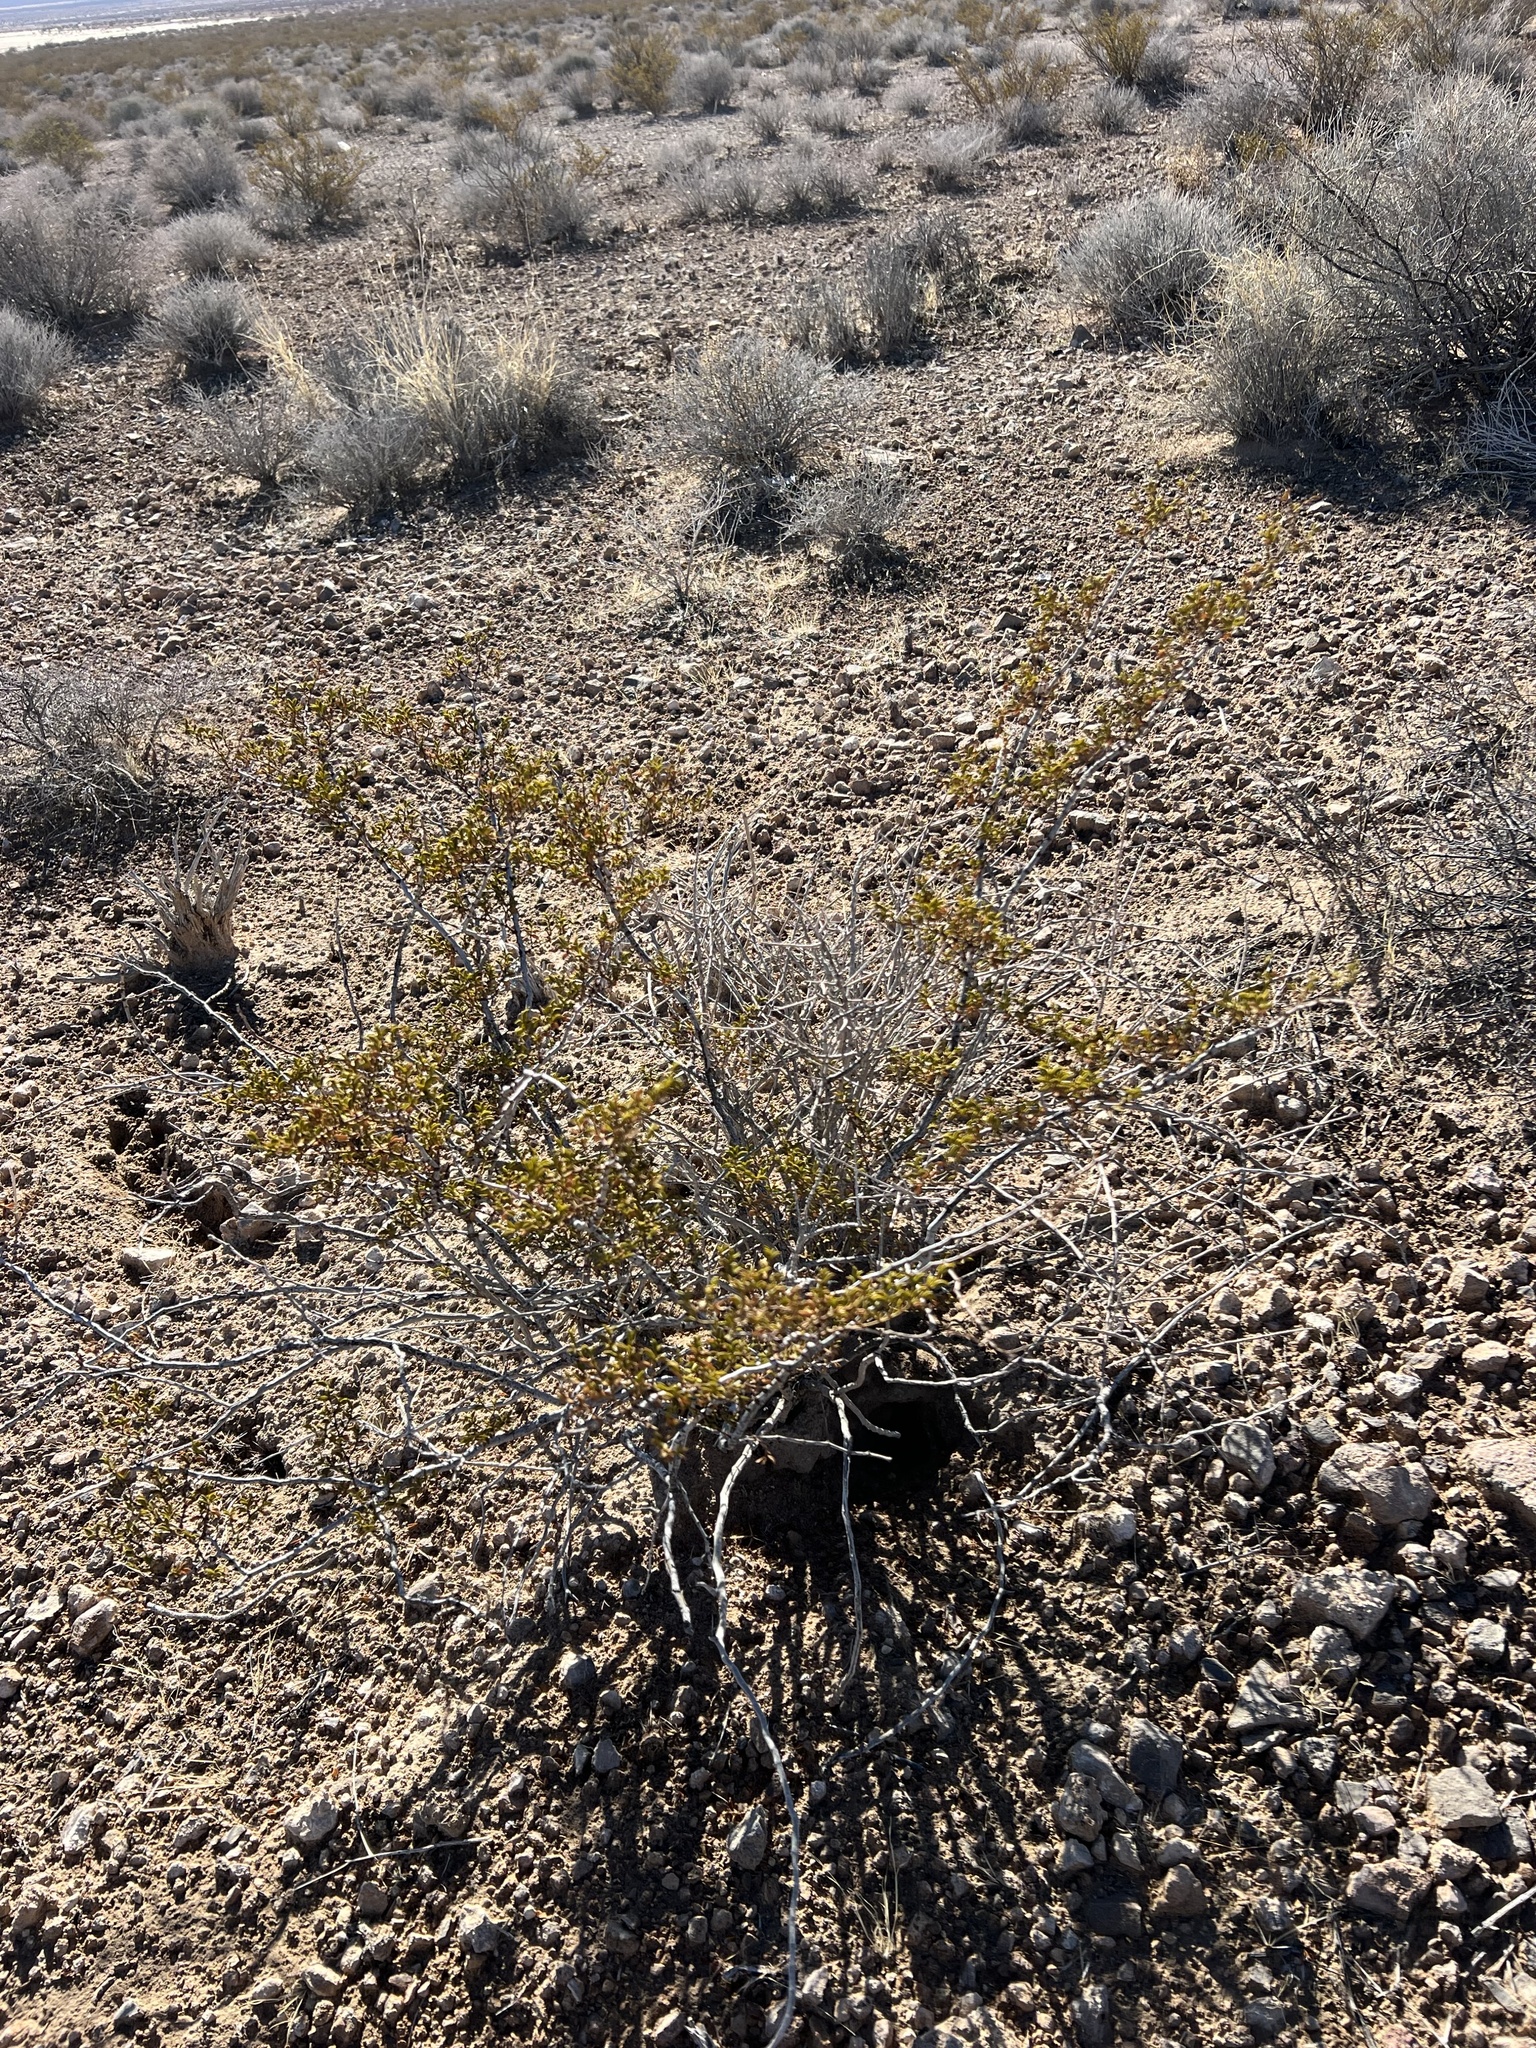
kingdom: Plantae
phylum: Tracheophyta
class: Magnoliopsida
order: Zygophyllales
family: Zygophyllaceae
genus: Larrea
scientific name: Larrea tridentata
